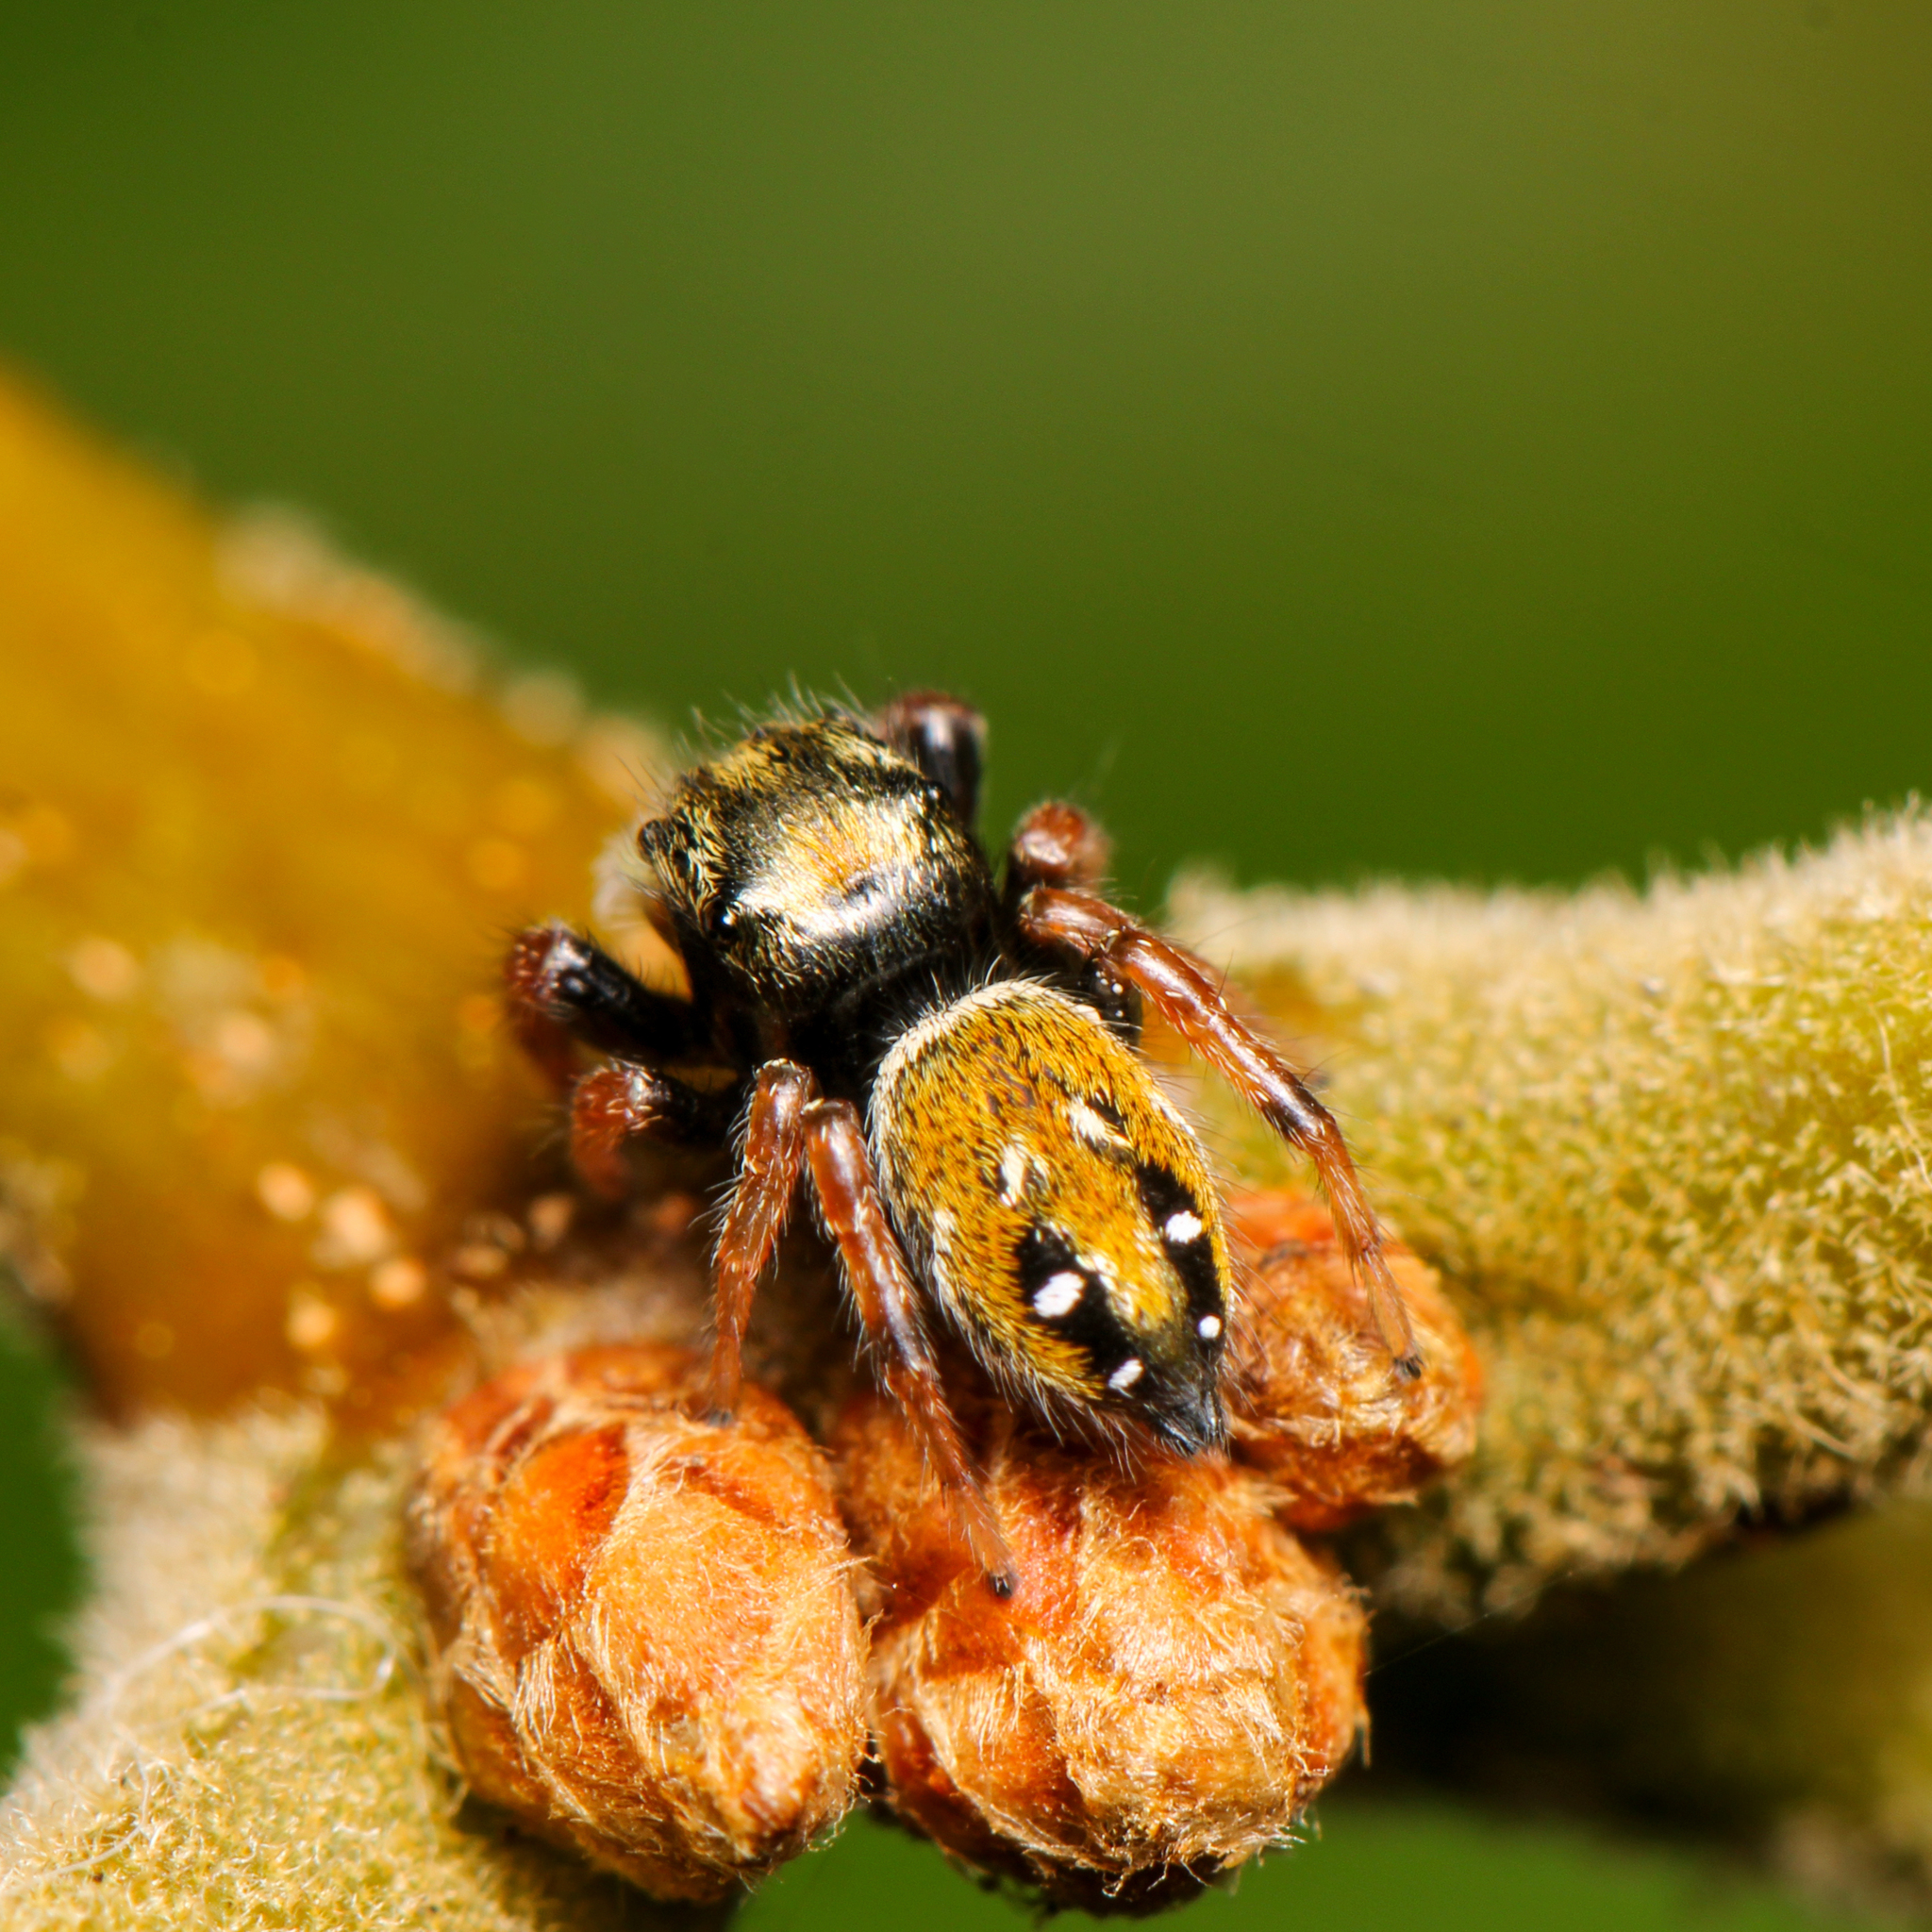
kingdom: Animalia
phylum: Arthropoda
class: Arachnida
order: Araneae
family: Salticidae
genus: Phidippus
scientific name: Phidippus whitmani
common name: Whitman's jumping spider
